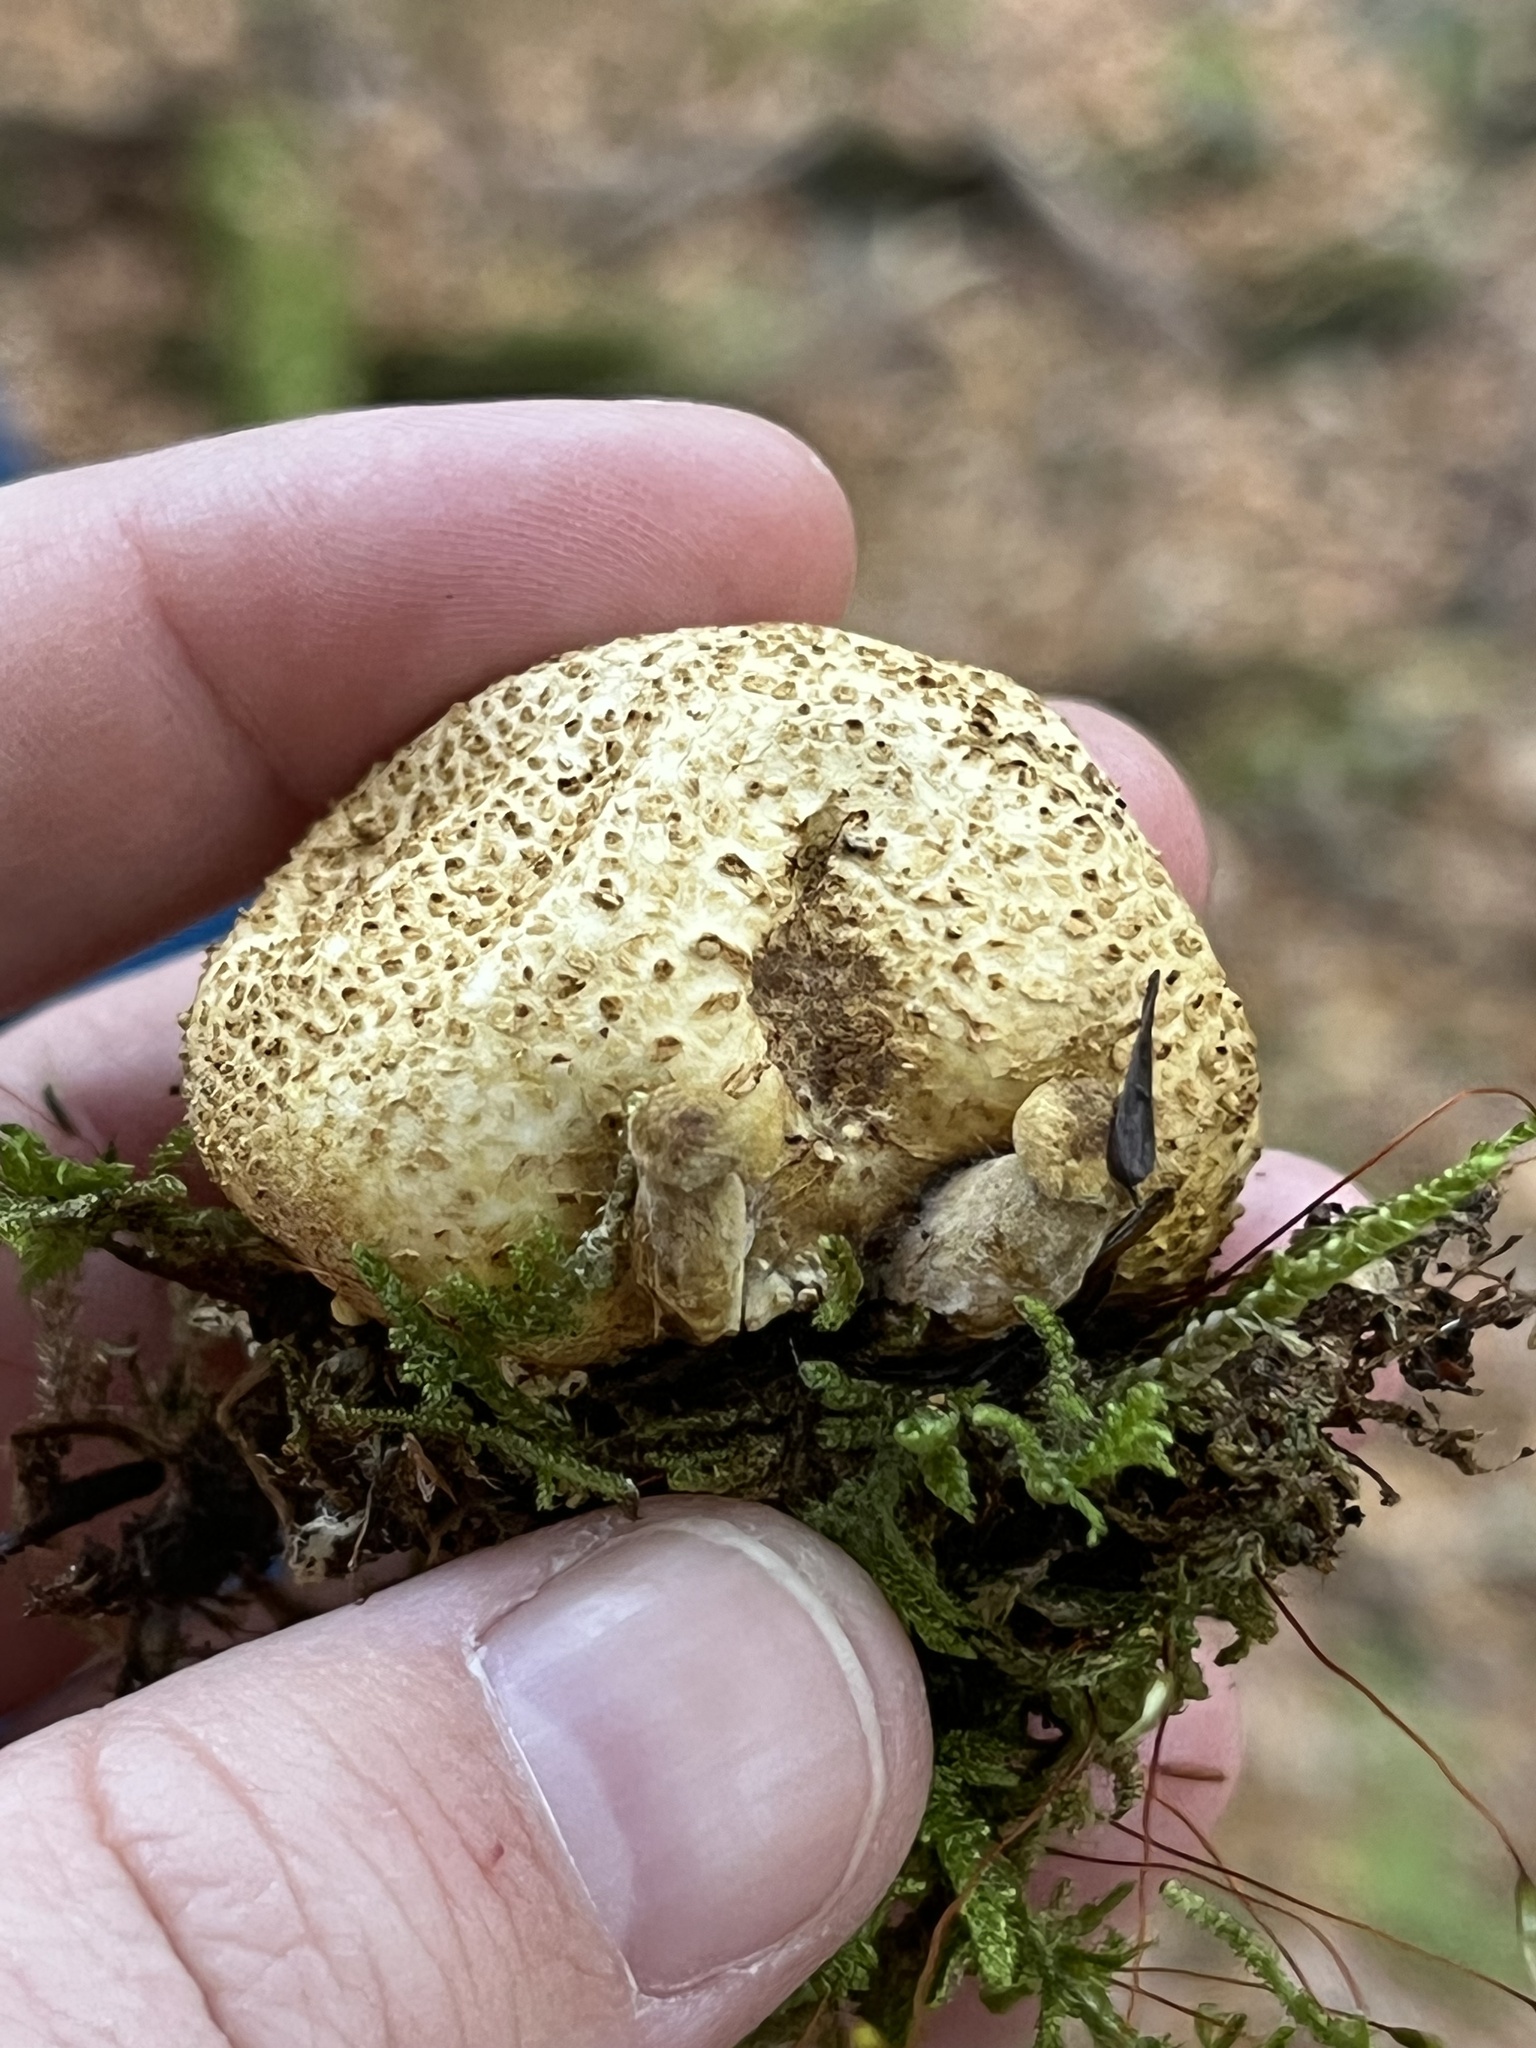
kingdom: Fungi
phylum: Basidiomycota
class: Agaricomycetes
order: Boletales
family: Boletaceae
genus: Pseudoboletus
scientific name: Pseudoboletus parasiticus
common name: Parasitic bolete
